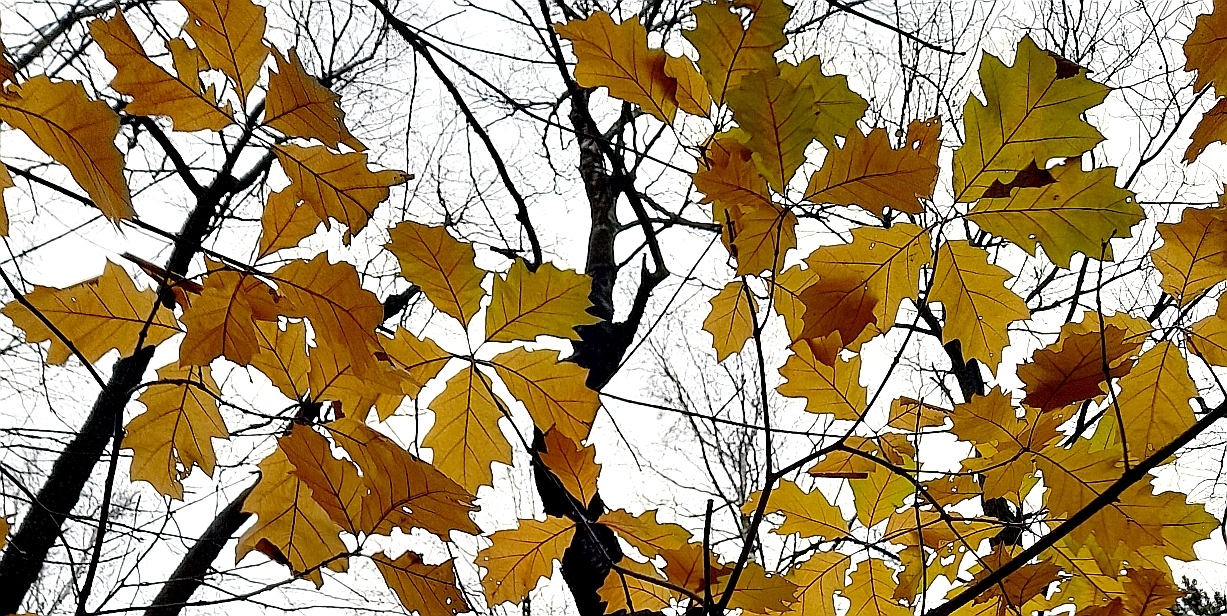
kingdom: Plantae
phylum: Tracheophyta
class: Magnoliopsida
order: Fagales
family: Fagaceae
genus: Quercus
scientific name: Quercus rubra
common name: Red oak
